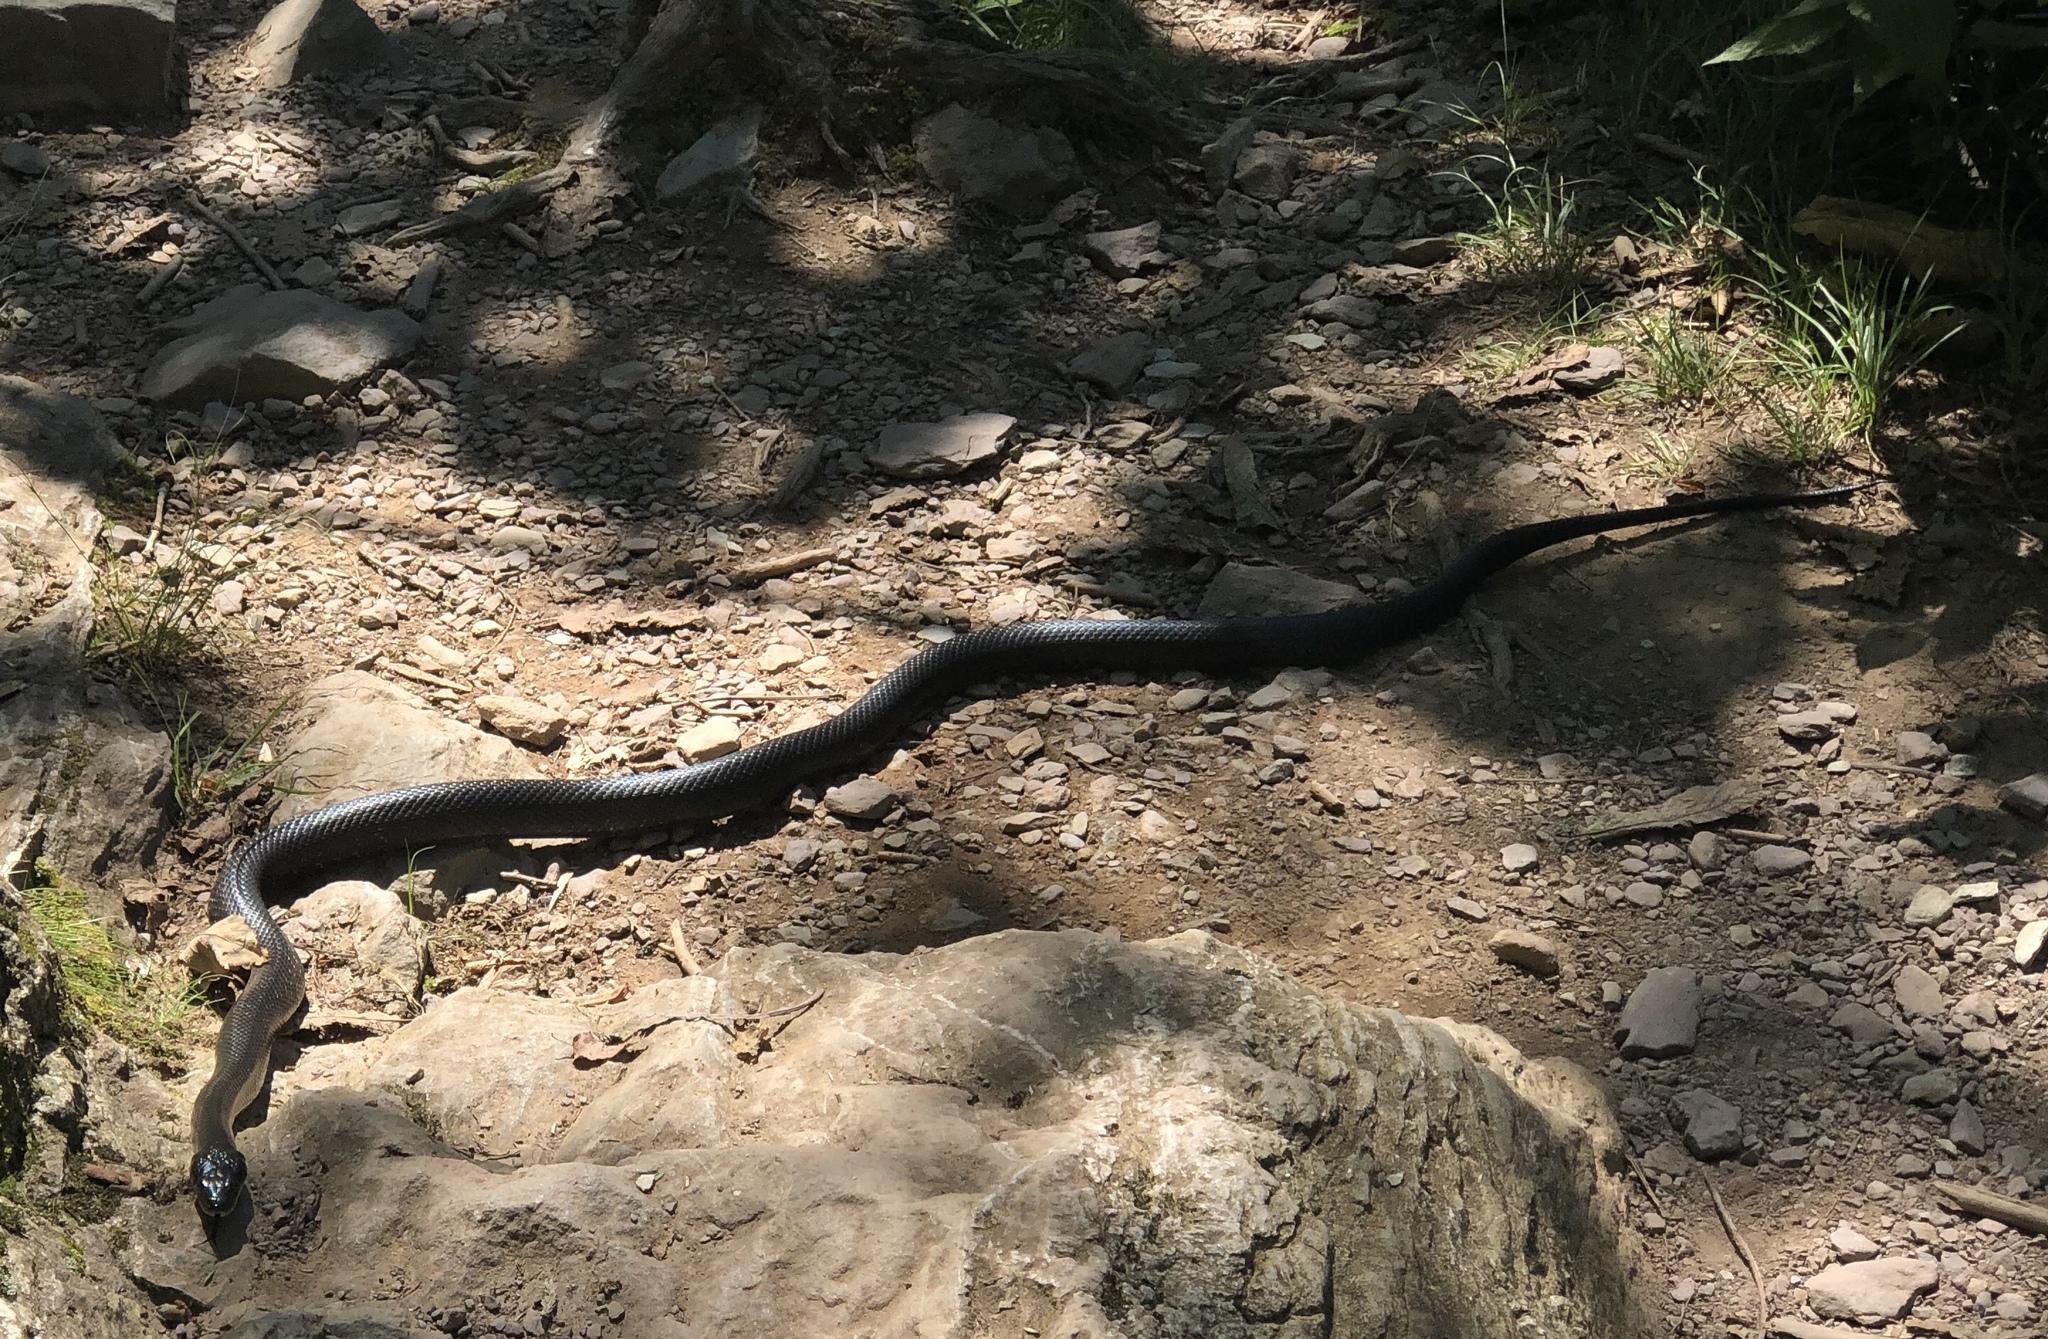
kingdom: Animalia
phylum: Chordata
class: Squamata
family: Colubridae
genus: Pantherophis
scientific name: Pantherophis alleghaniensis
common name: Eastern rat snake
